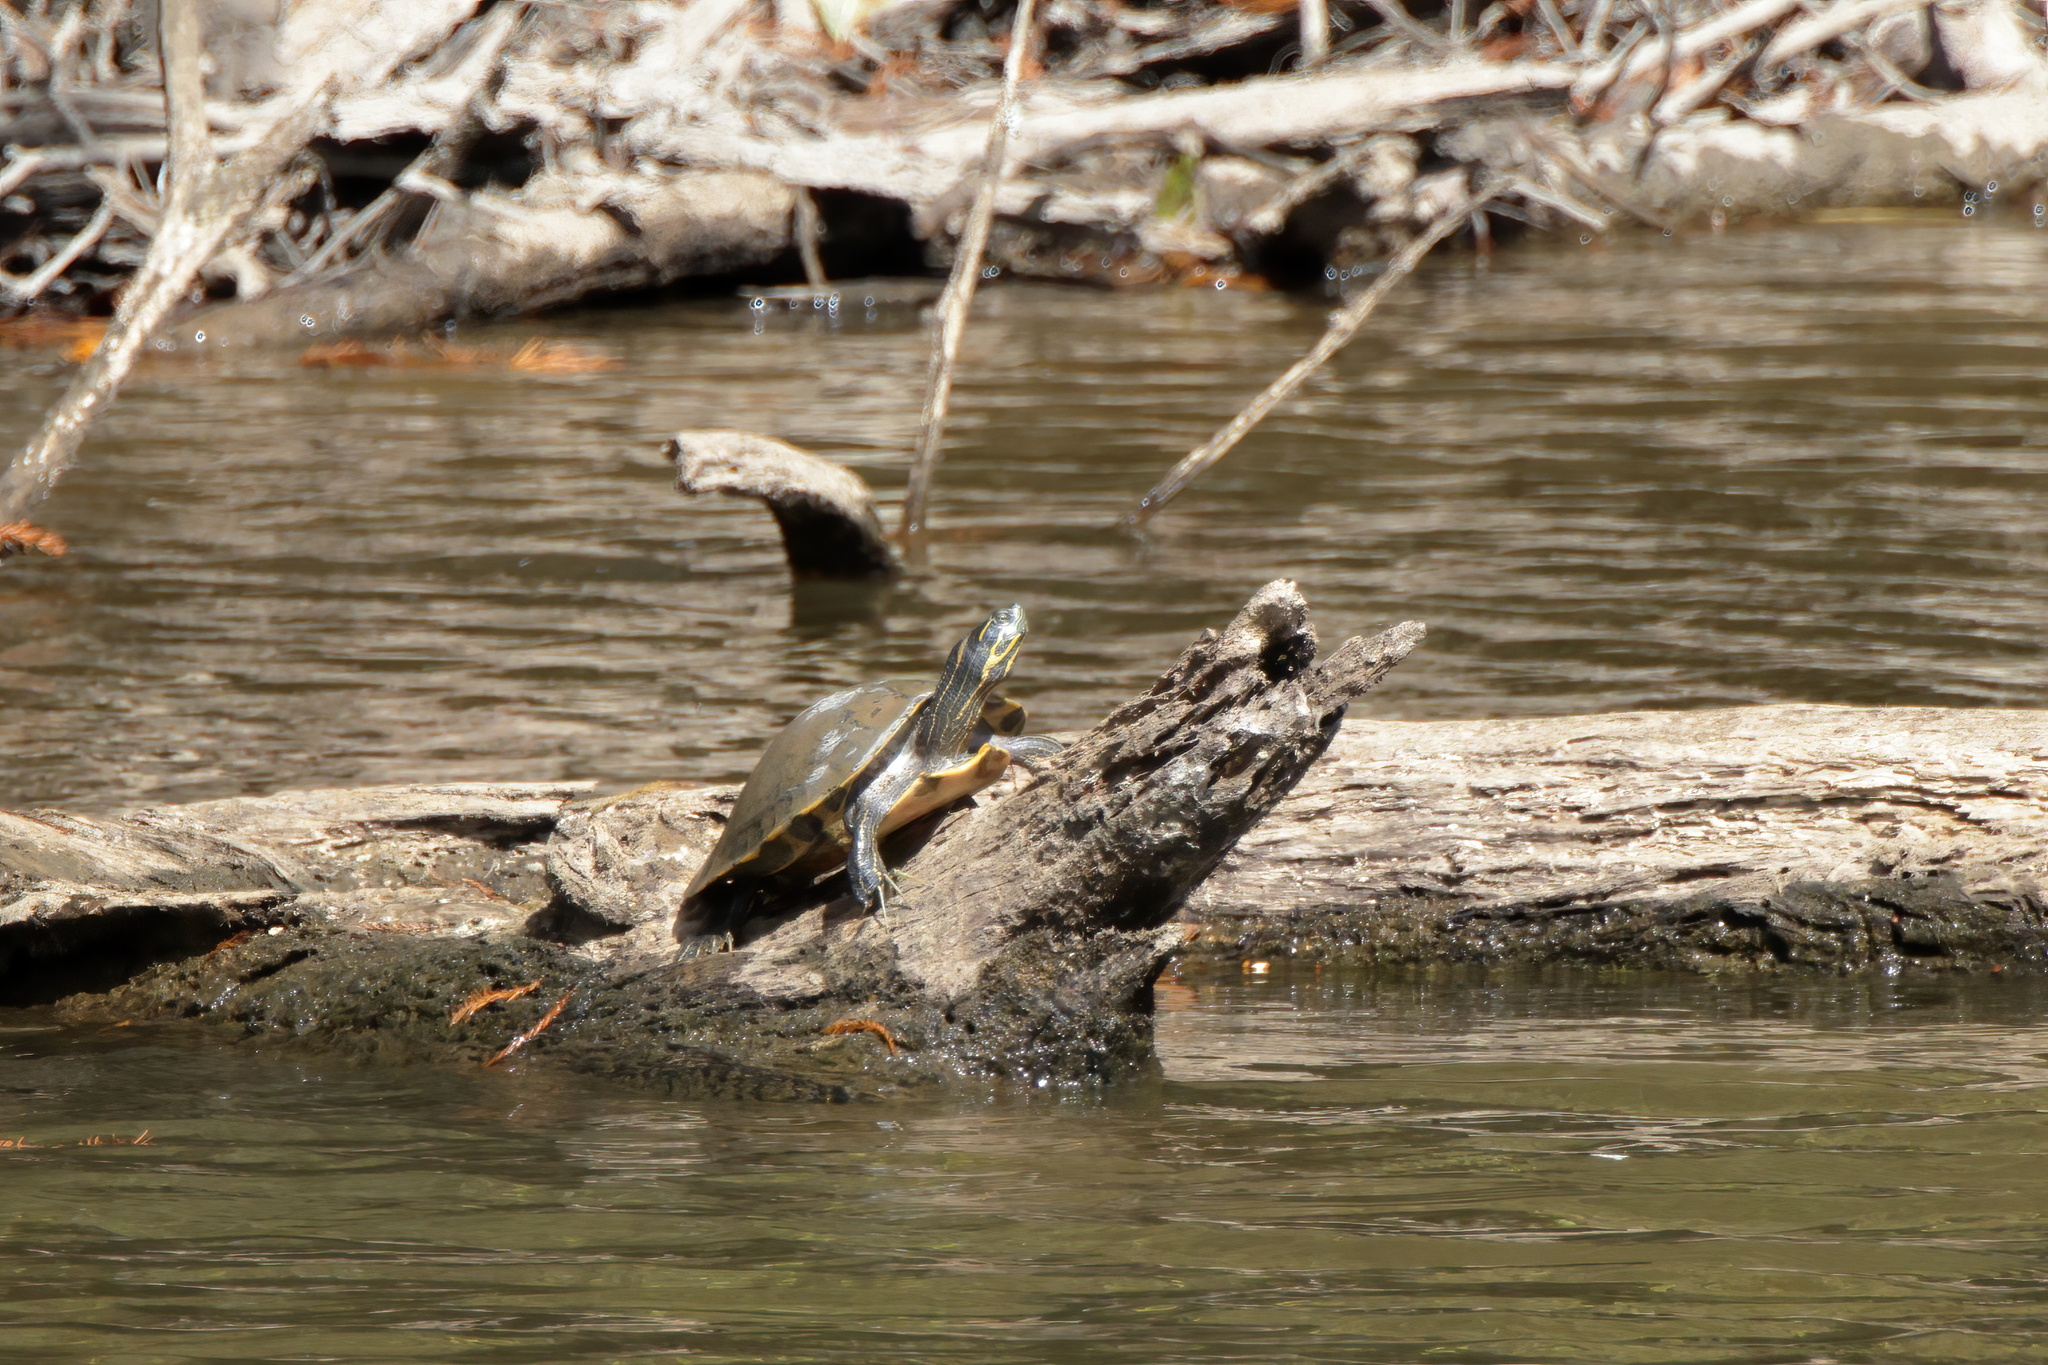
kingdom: Animalia
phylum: Chordata
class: Testudines
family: Emydidae
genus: Pseudemys
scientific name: Pseudemys concinna
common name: Eastern river cooter
